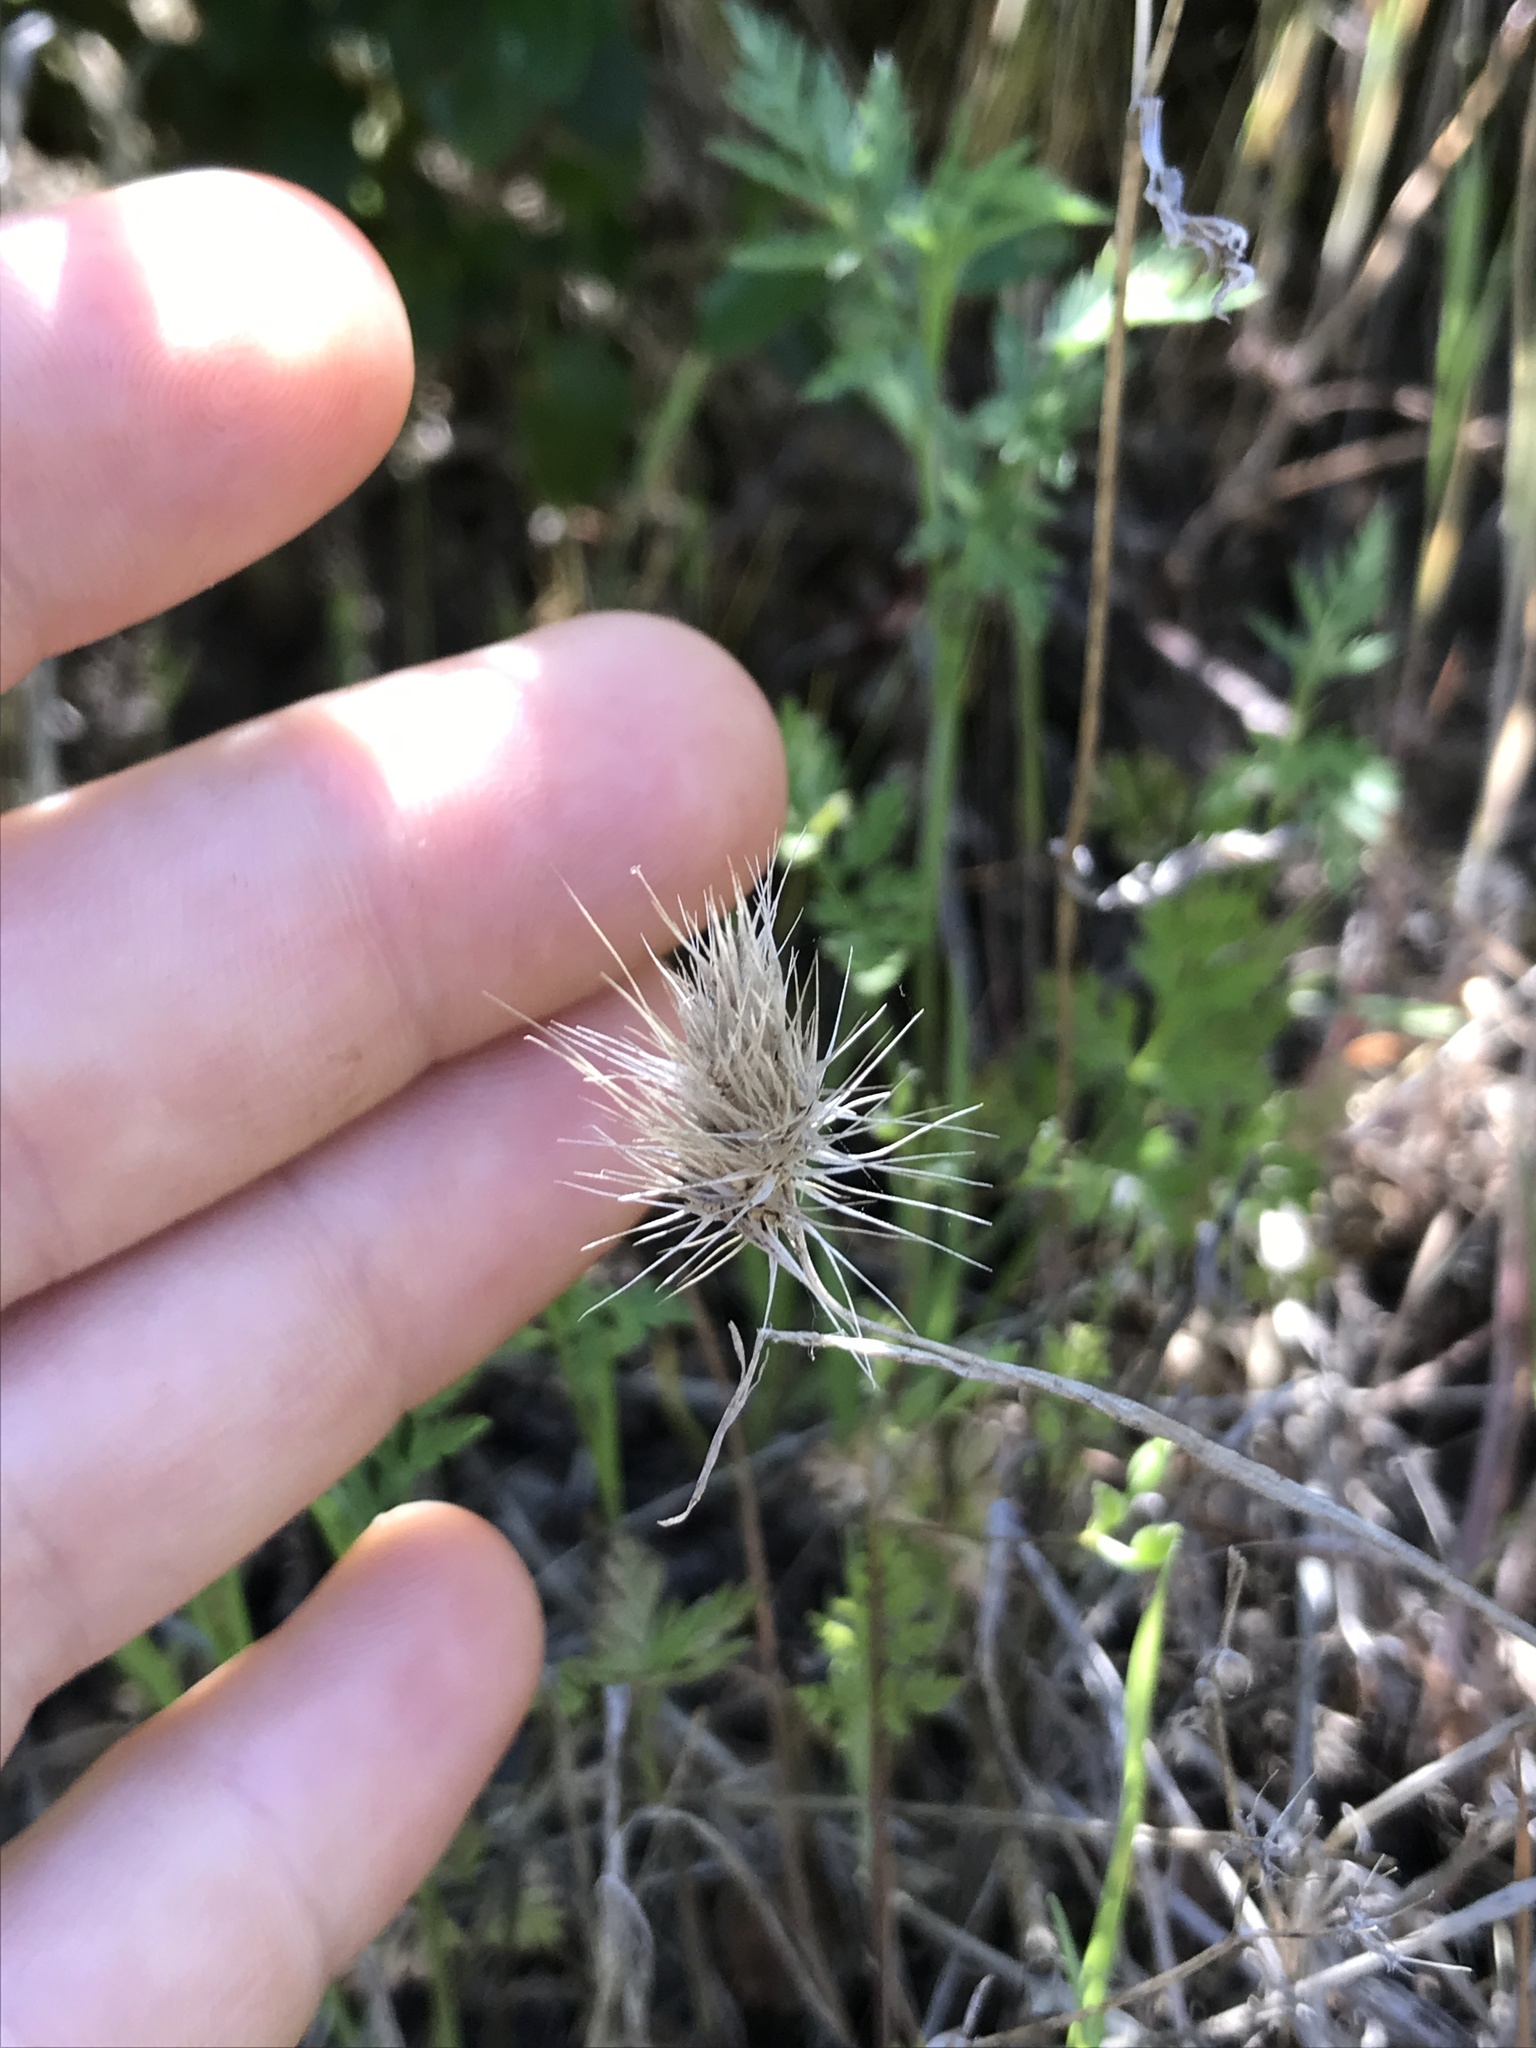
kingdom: Plantae
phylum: Tracheophyta
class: Liliopsida
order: Poales
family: Poaceae
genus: Cynosurus
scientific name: Cynosurus echinatus
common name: Rough dog's-tail
